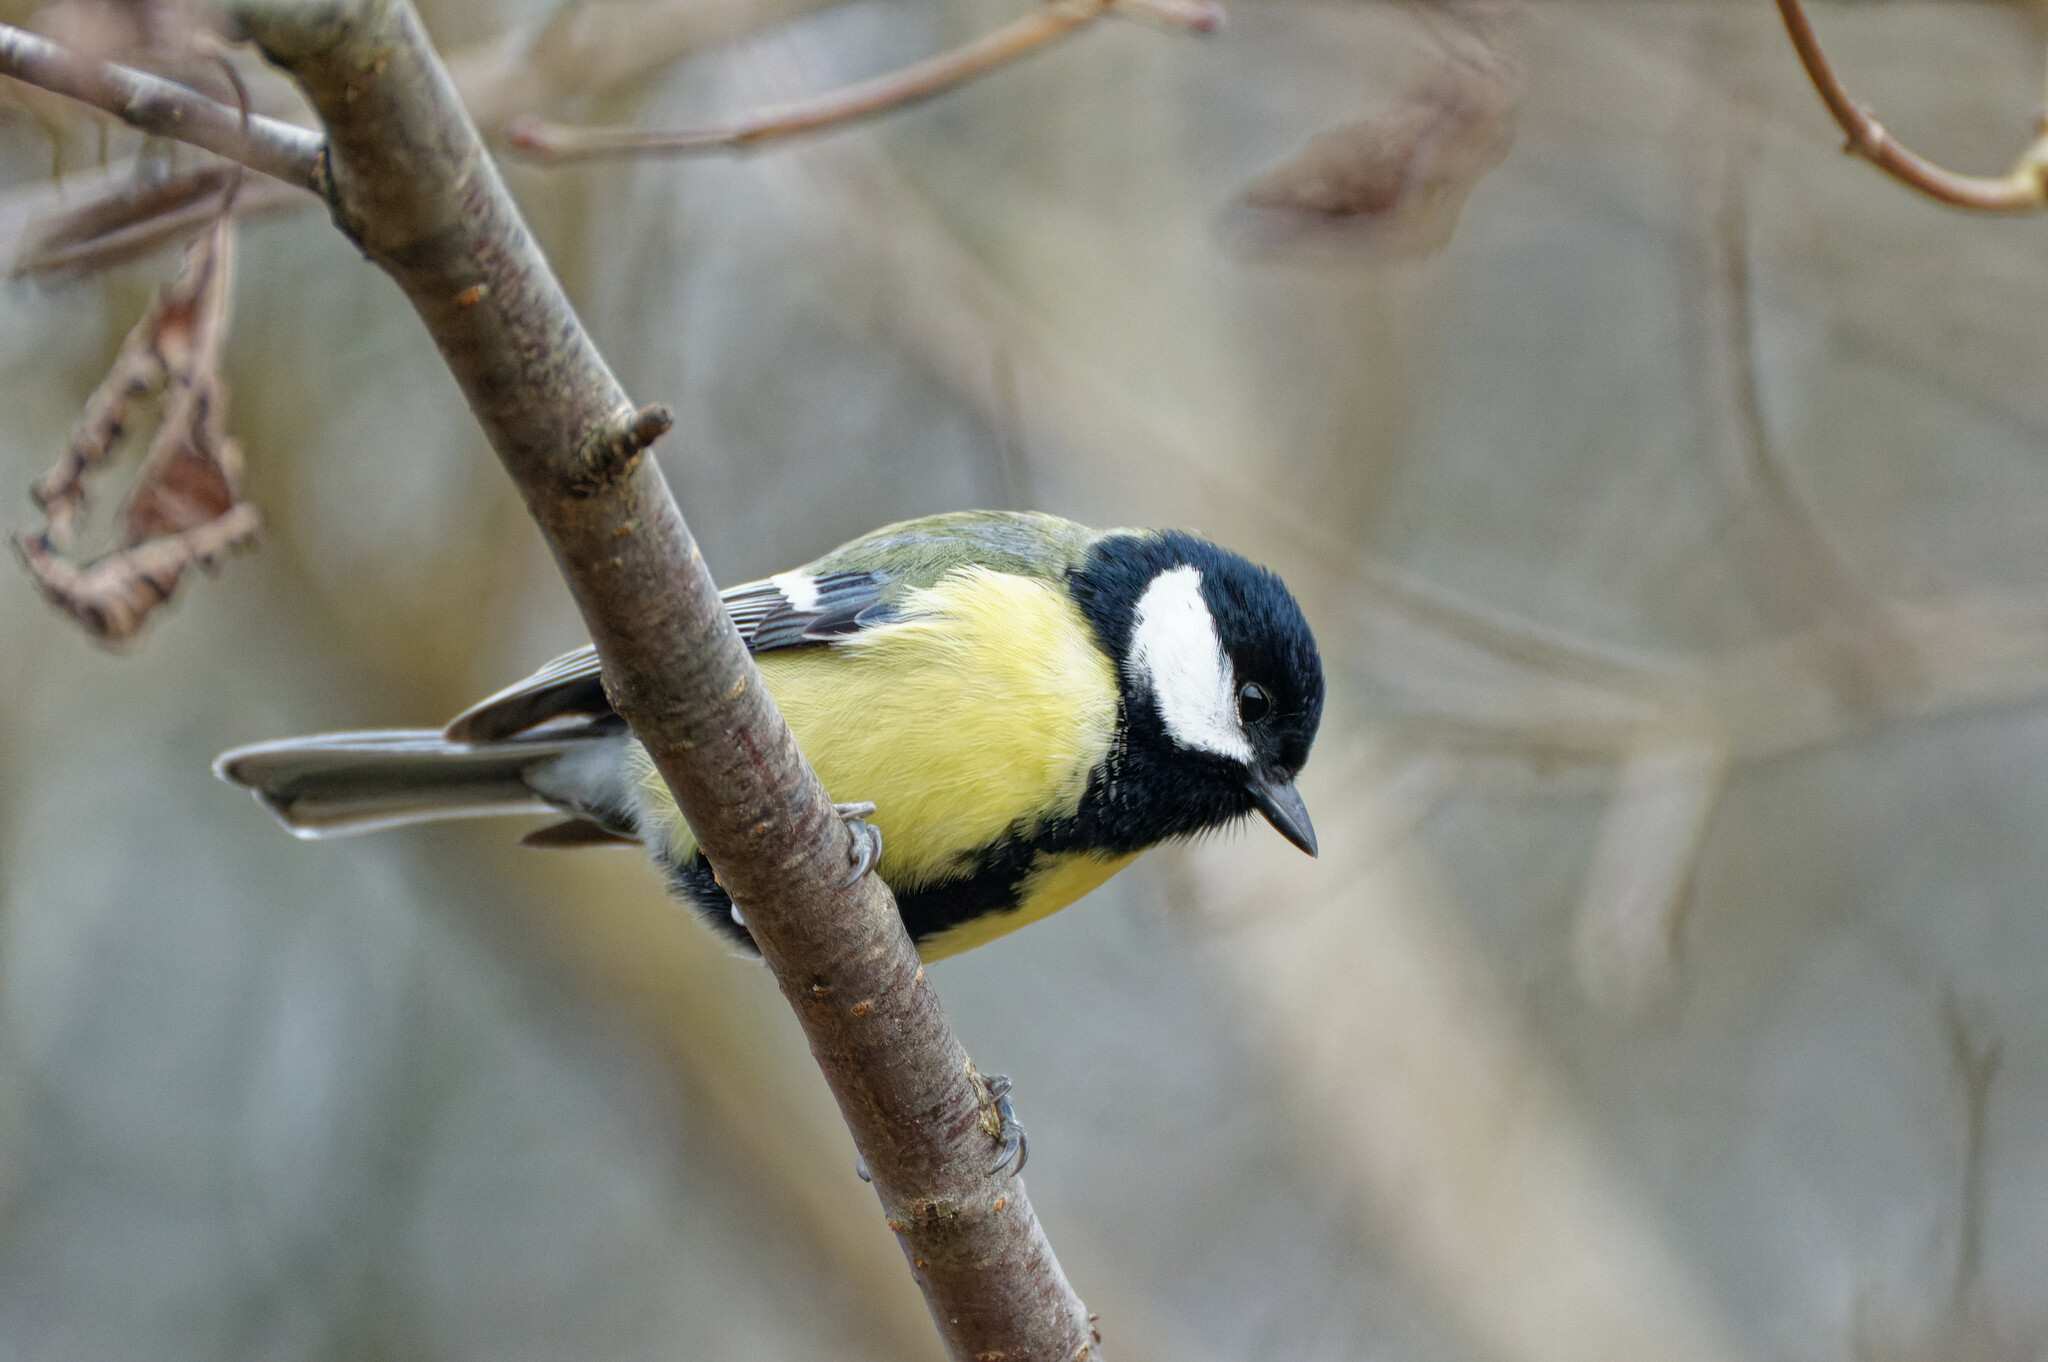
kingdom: Animalia
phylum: Chordata
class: Aves
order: Passeriformes
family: Paridae
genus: Parus
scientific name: Parus major
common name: Great tit
